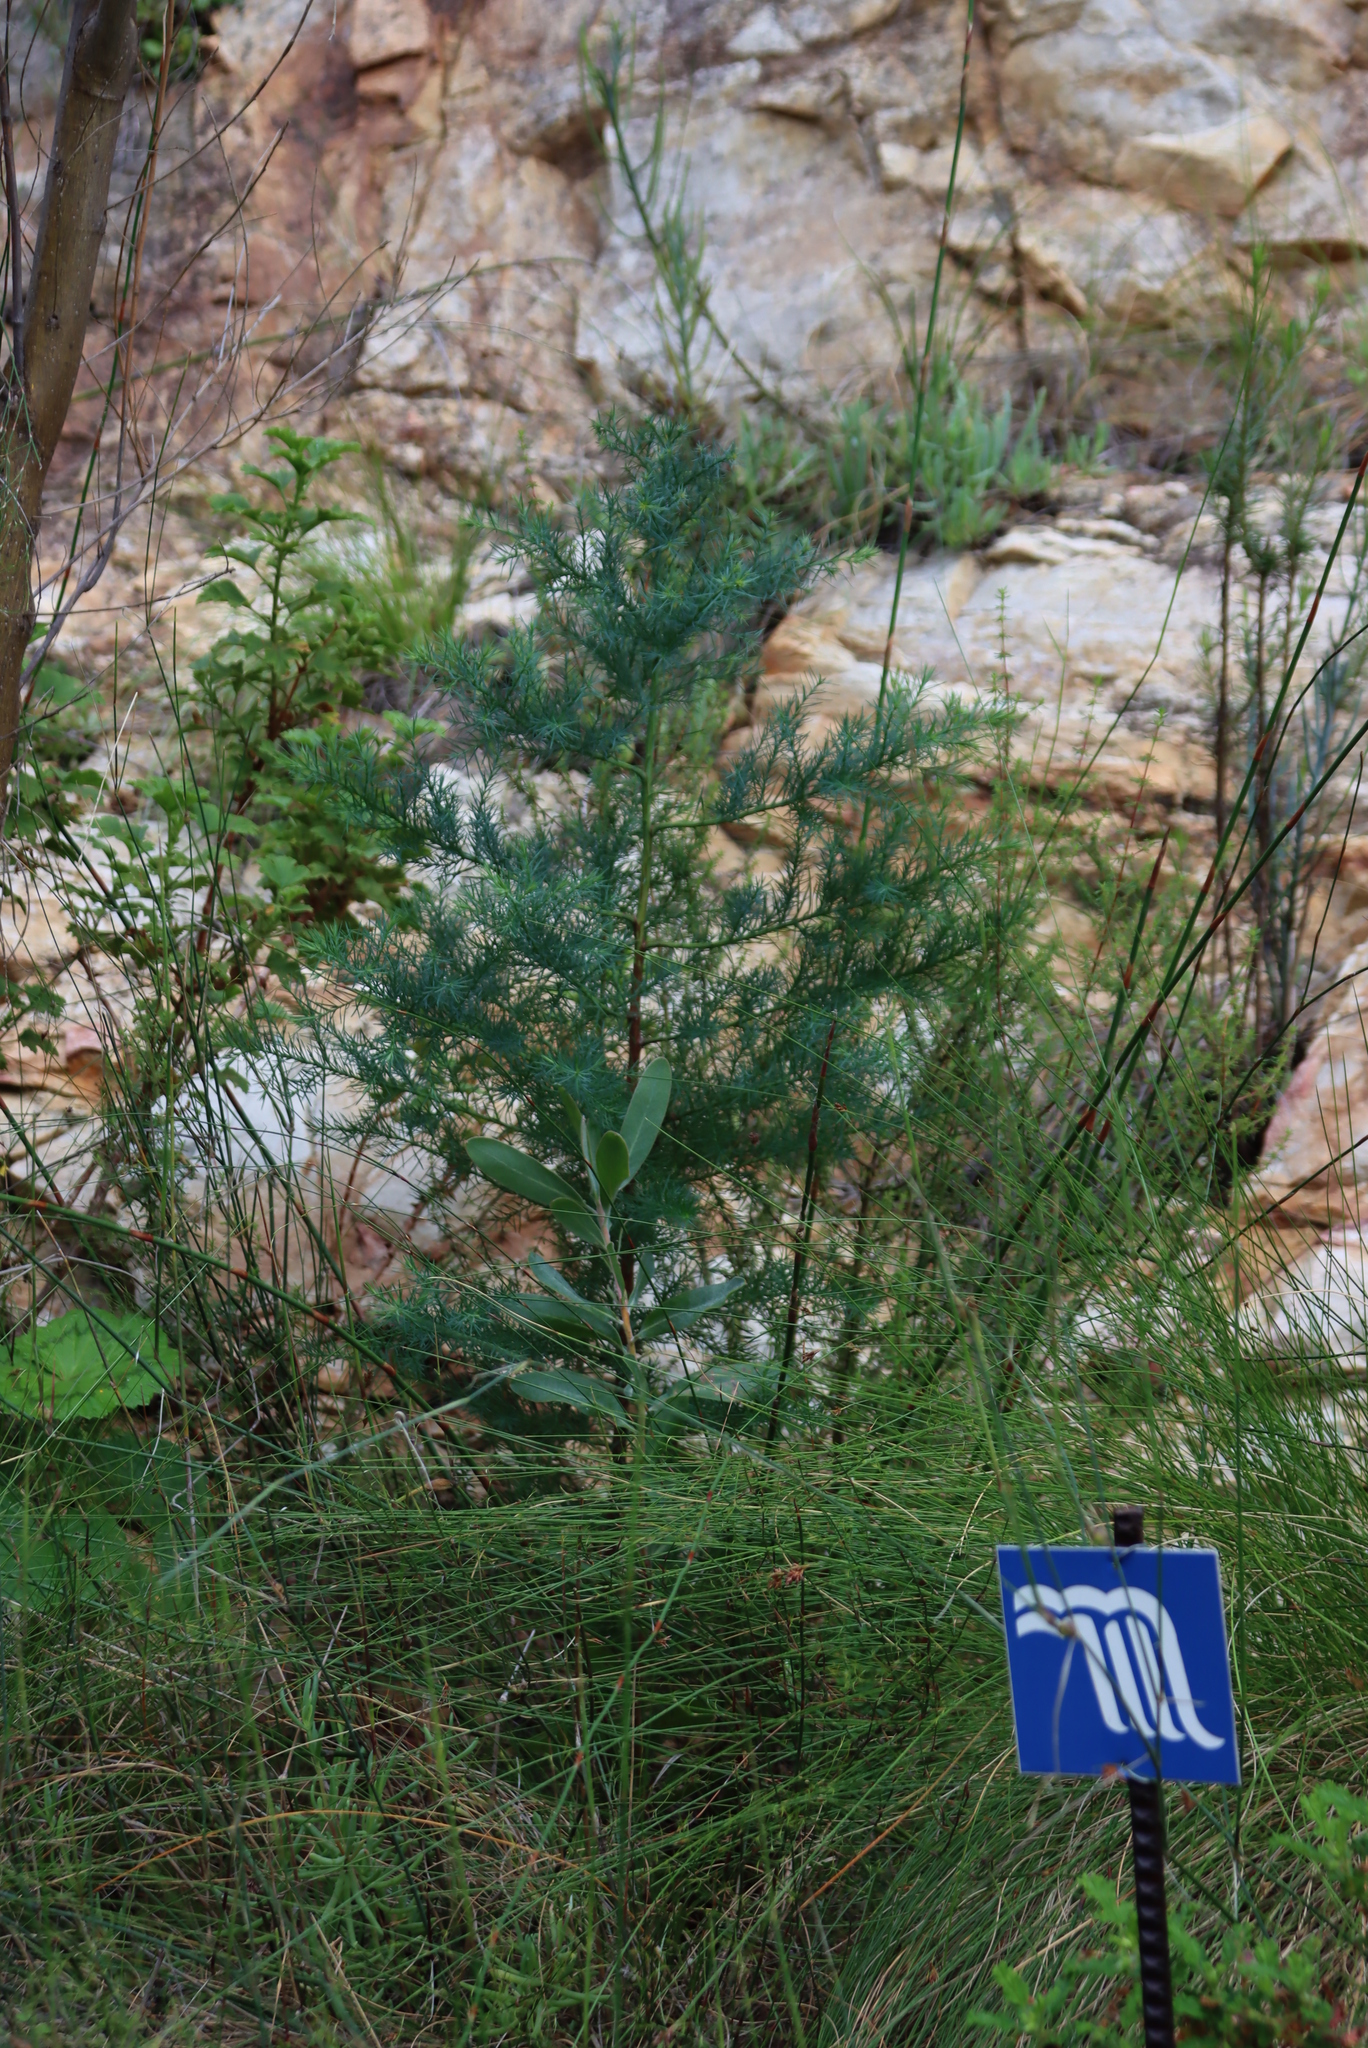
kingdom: Plantae
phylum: Tracheophyta
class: Pinopsida
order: Pinales
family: Cupressaceae
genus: Widdringtonia
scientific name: Widdringtonia schwarzii
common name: Baviaans cedar
